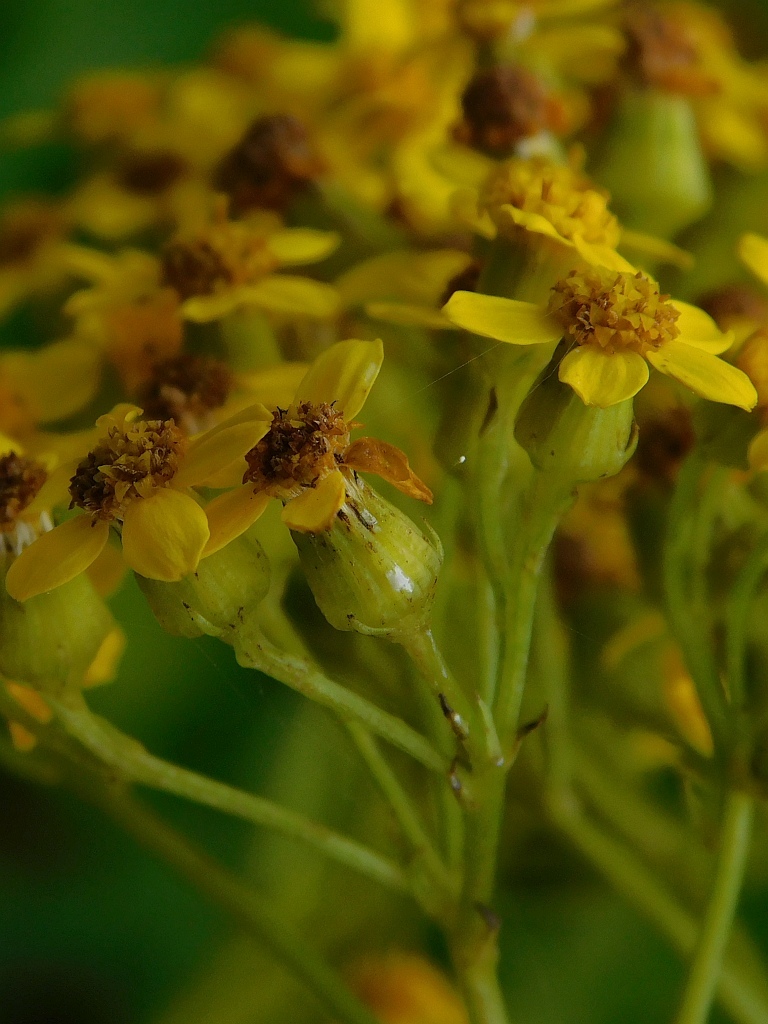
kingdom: Plantae
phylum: Tracheophyta
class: Magnoliopsida
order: Asterales
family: Asteraceae
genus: Senecio
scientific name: Senecio rigidus
